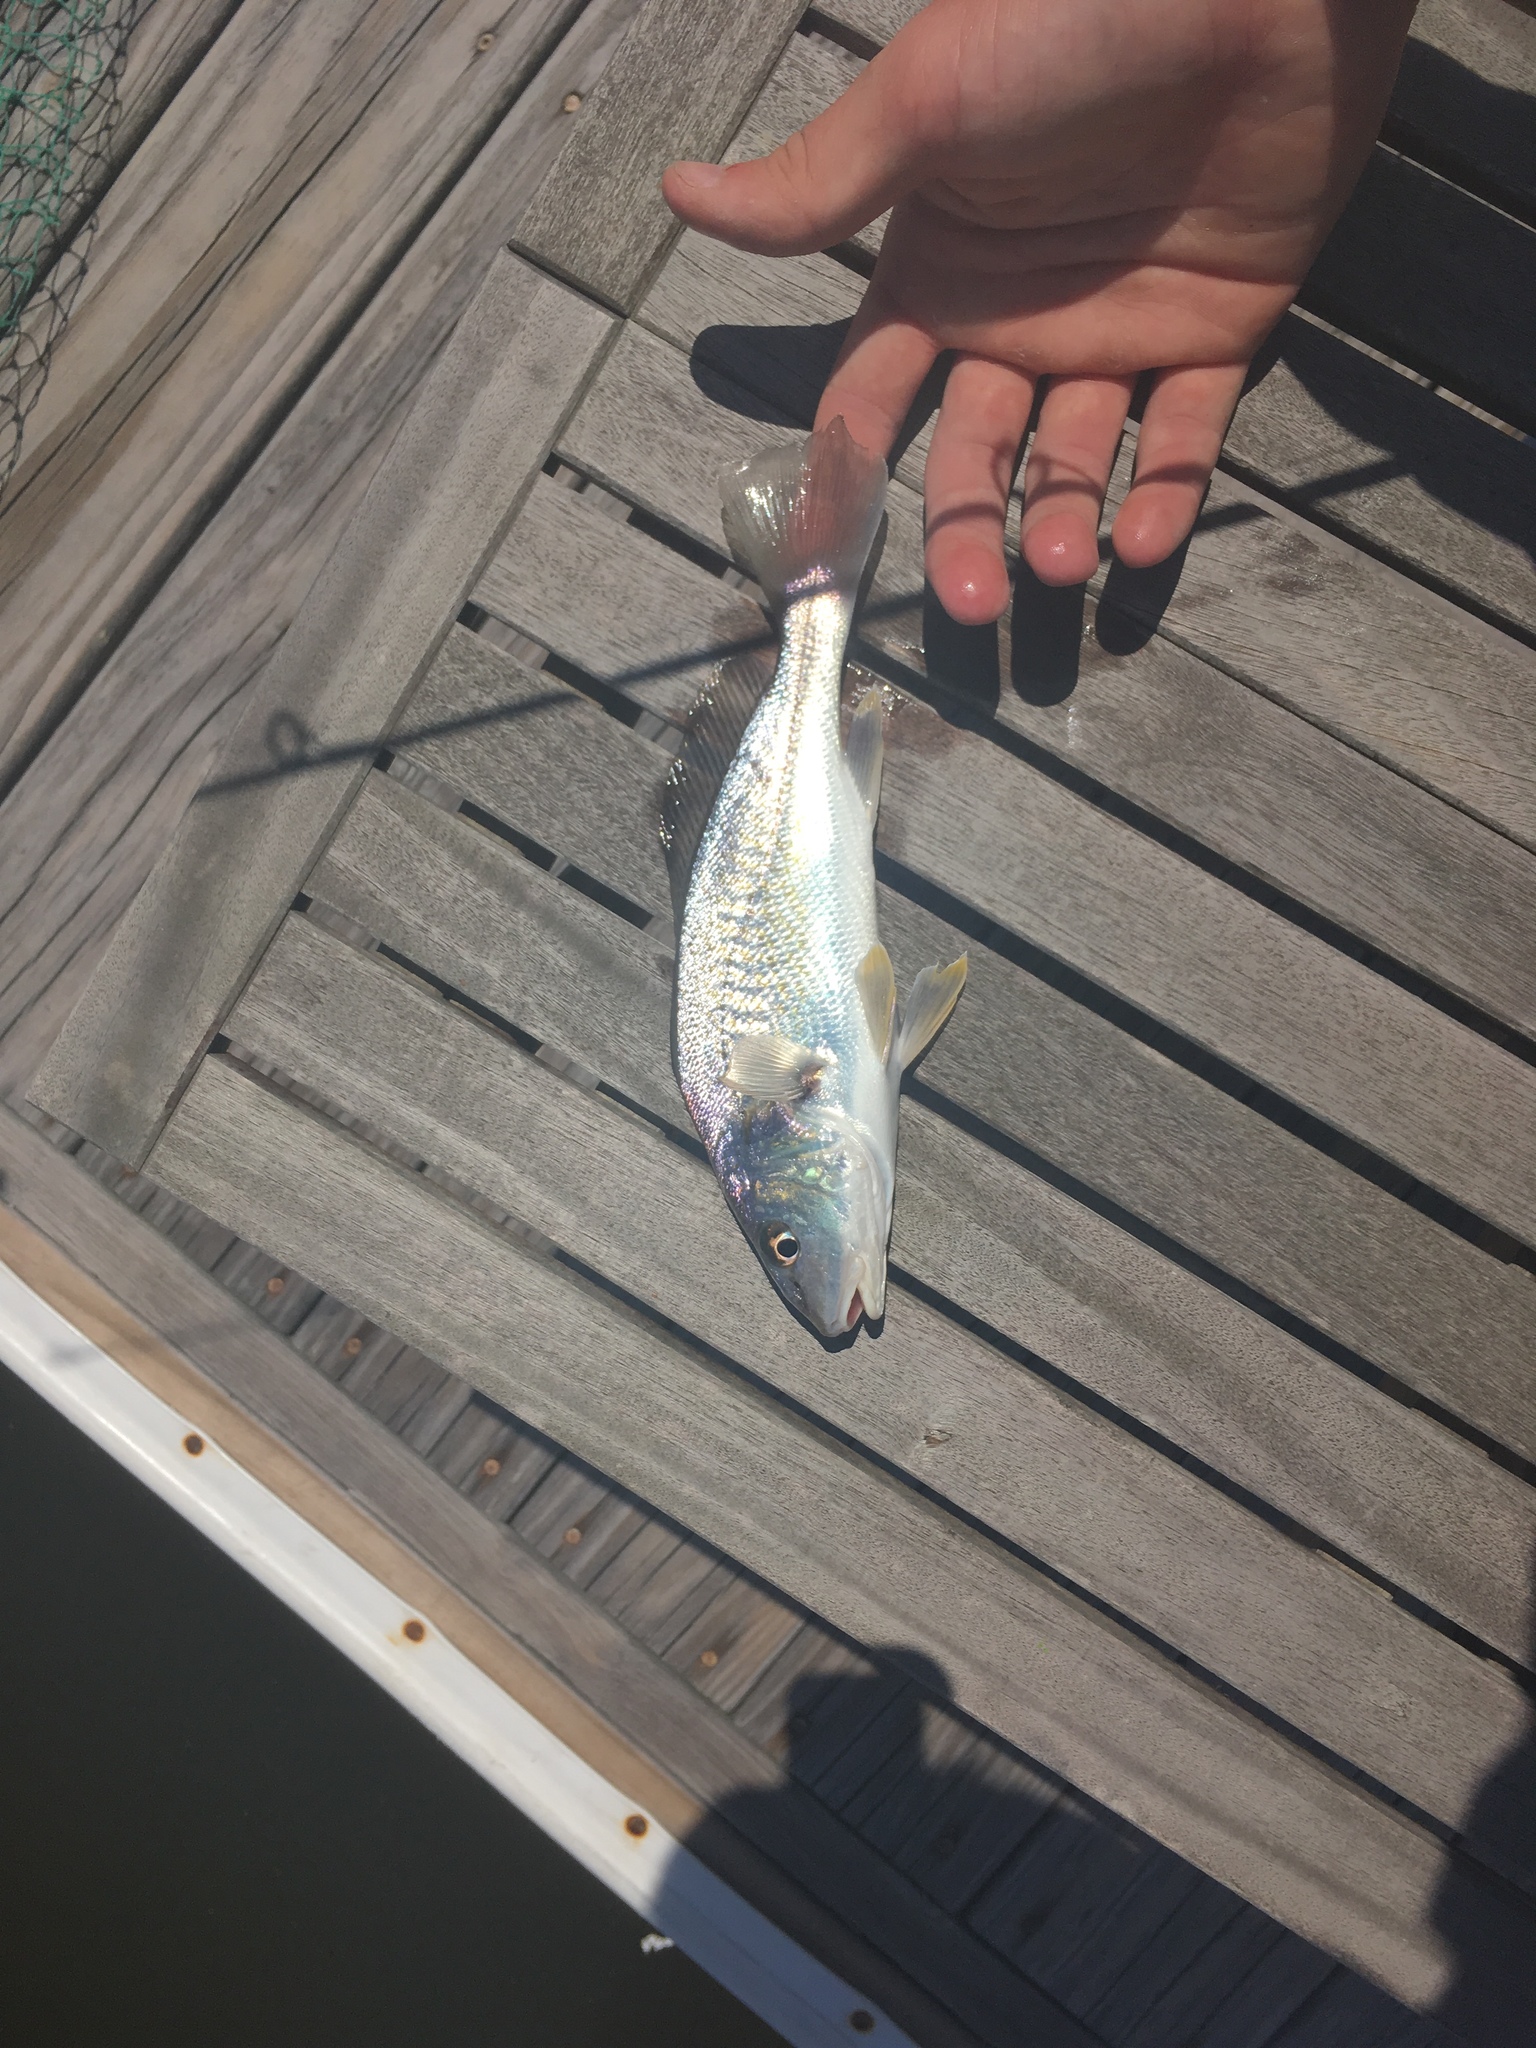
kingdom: Animalia
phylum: Chordata
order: Perciformes
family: Sciaenidae
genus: Micropogonias
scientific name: Micropogonias undulatus
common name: Atlantic croaker
